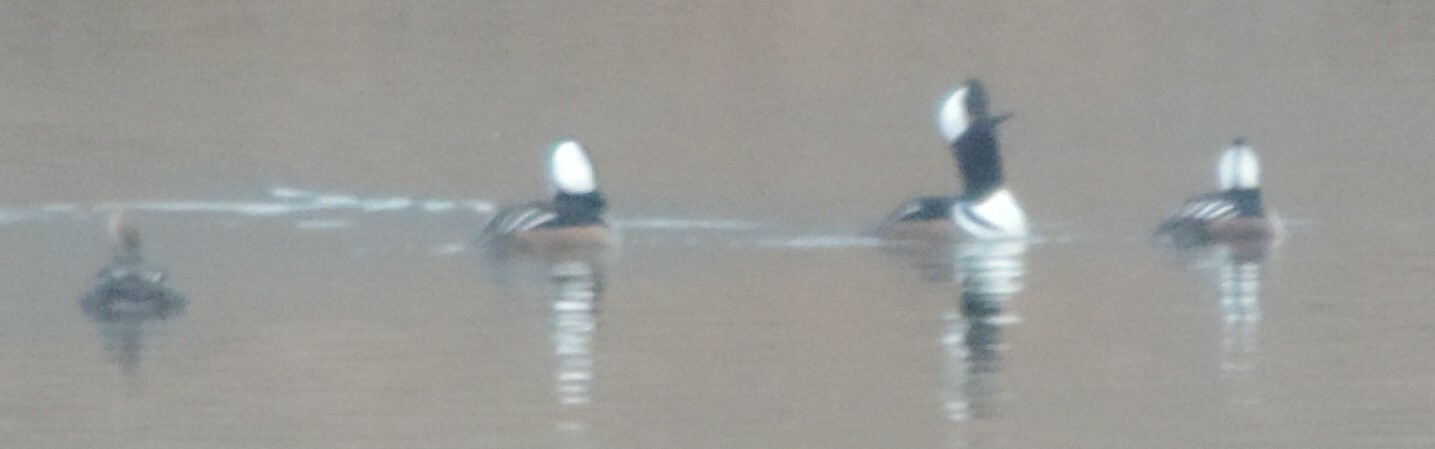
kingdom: Animalia
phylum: Chordata
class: Aves
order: Anseriformes
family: Anatidae
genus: Lophodytes
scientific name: Lophodytes cucullatus
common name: Hooded merganser
